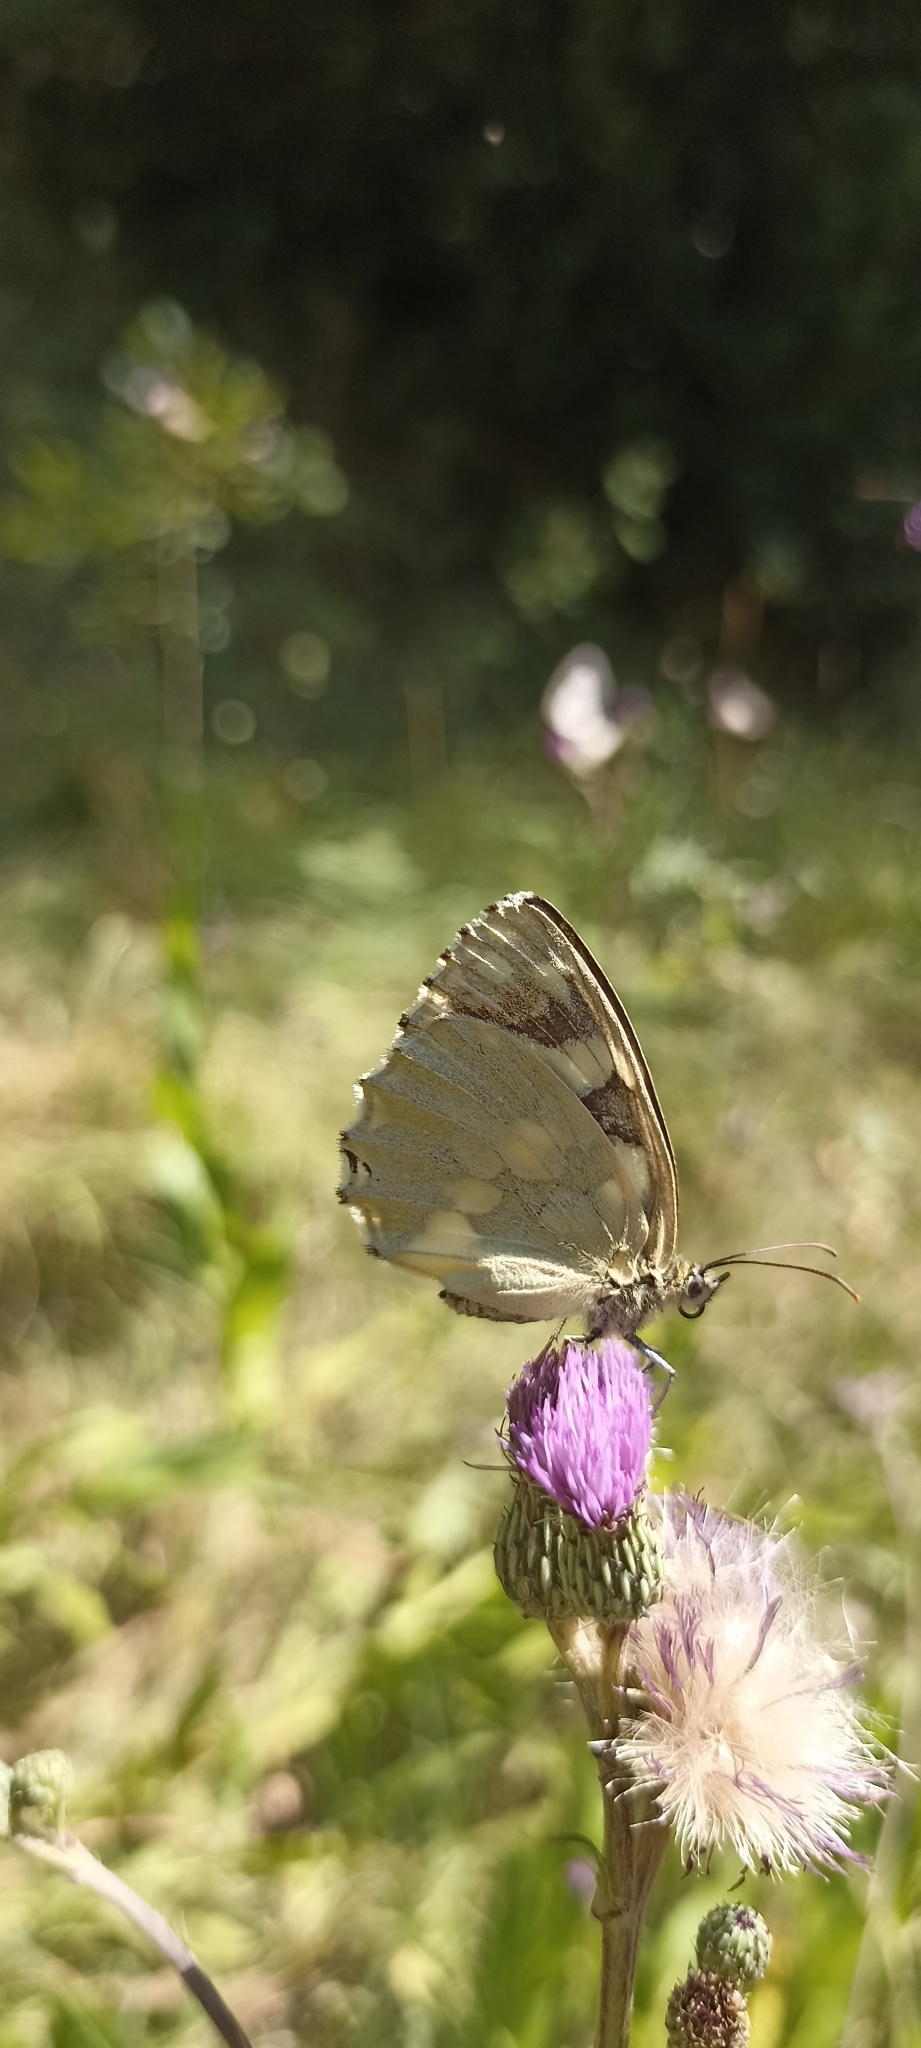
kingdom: Animalia
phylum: Arthropoda
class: Insecta
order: Lepidoptera
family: Nymphalidae
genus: Melanargia
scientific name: Melanargia galathea
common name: Marbled white
